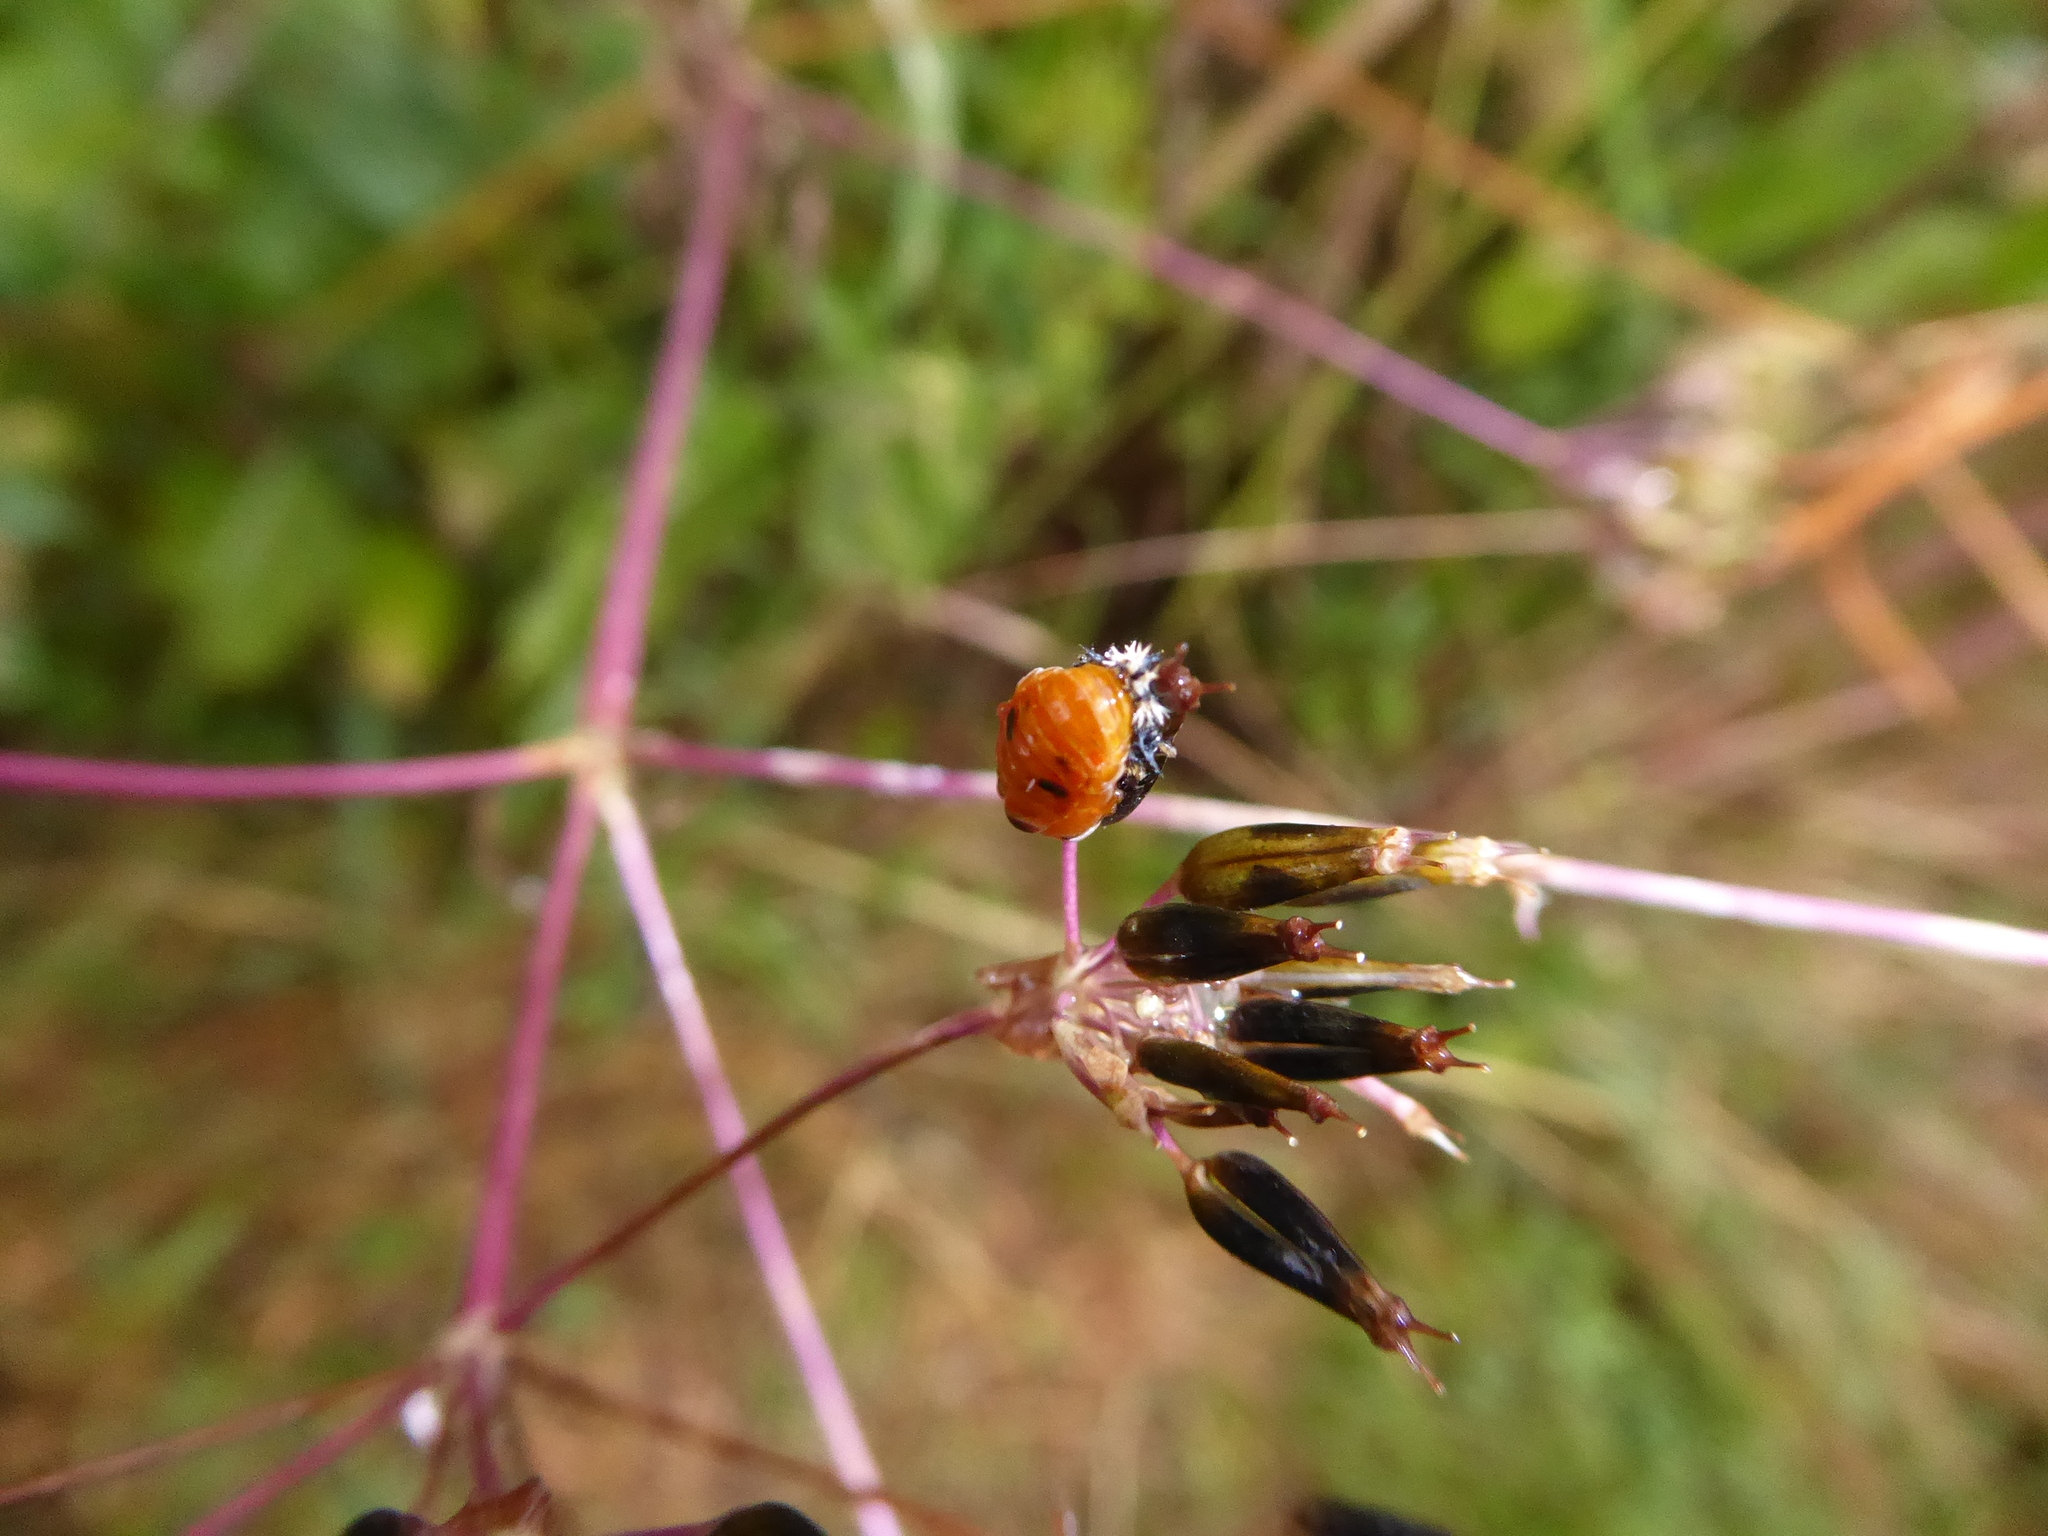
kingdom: Animalia
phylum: Arthropoda
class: Insecta
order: Coleoptera
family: Coccinellidae
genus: Harmonia
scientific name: Harmonia axyridis
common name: Harlequin ladybird
